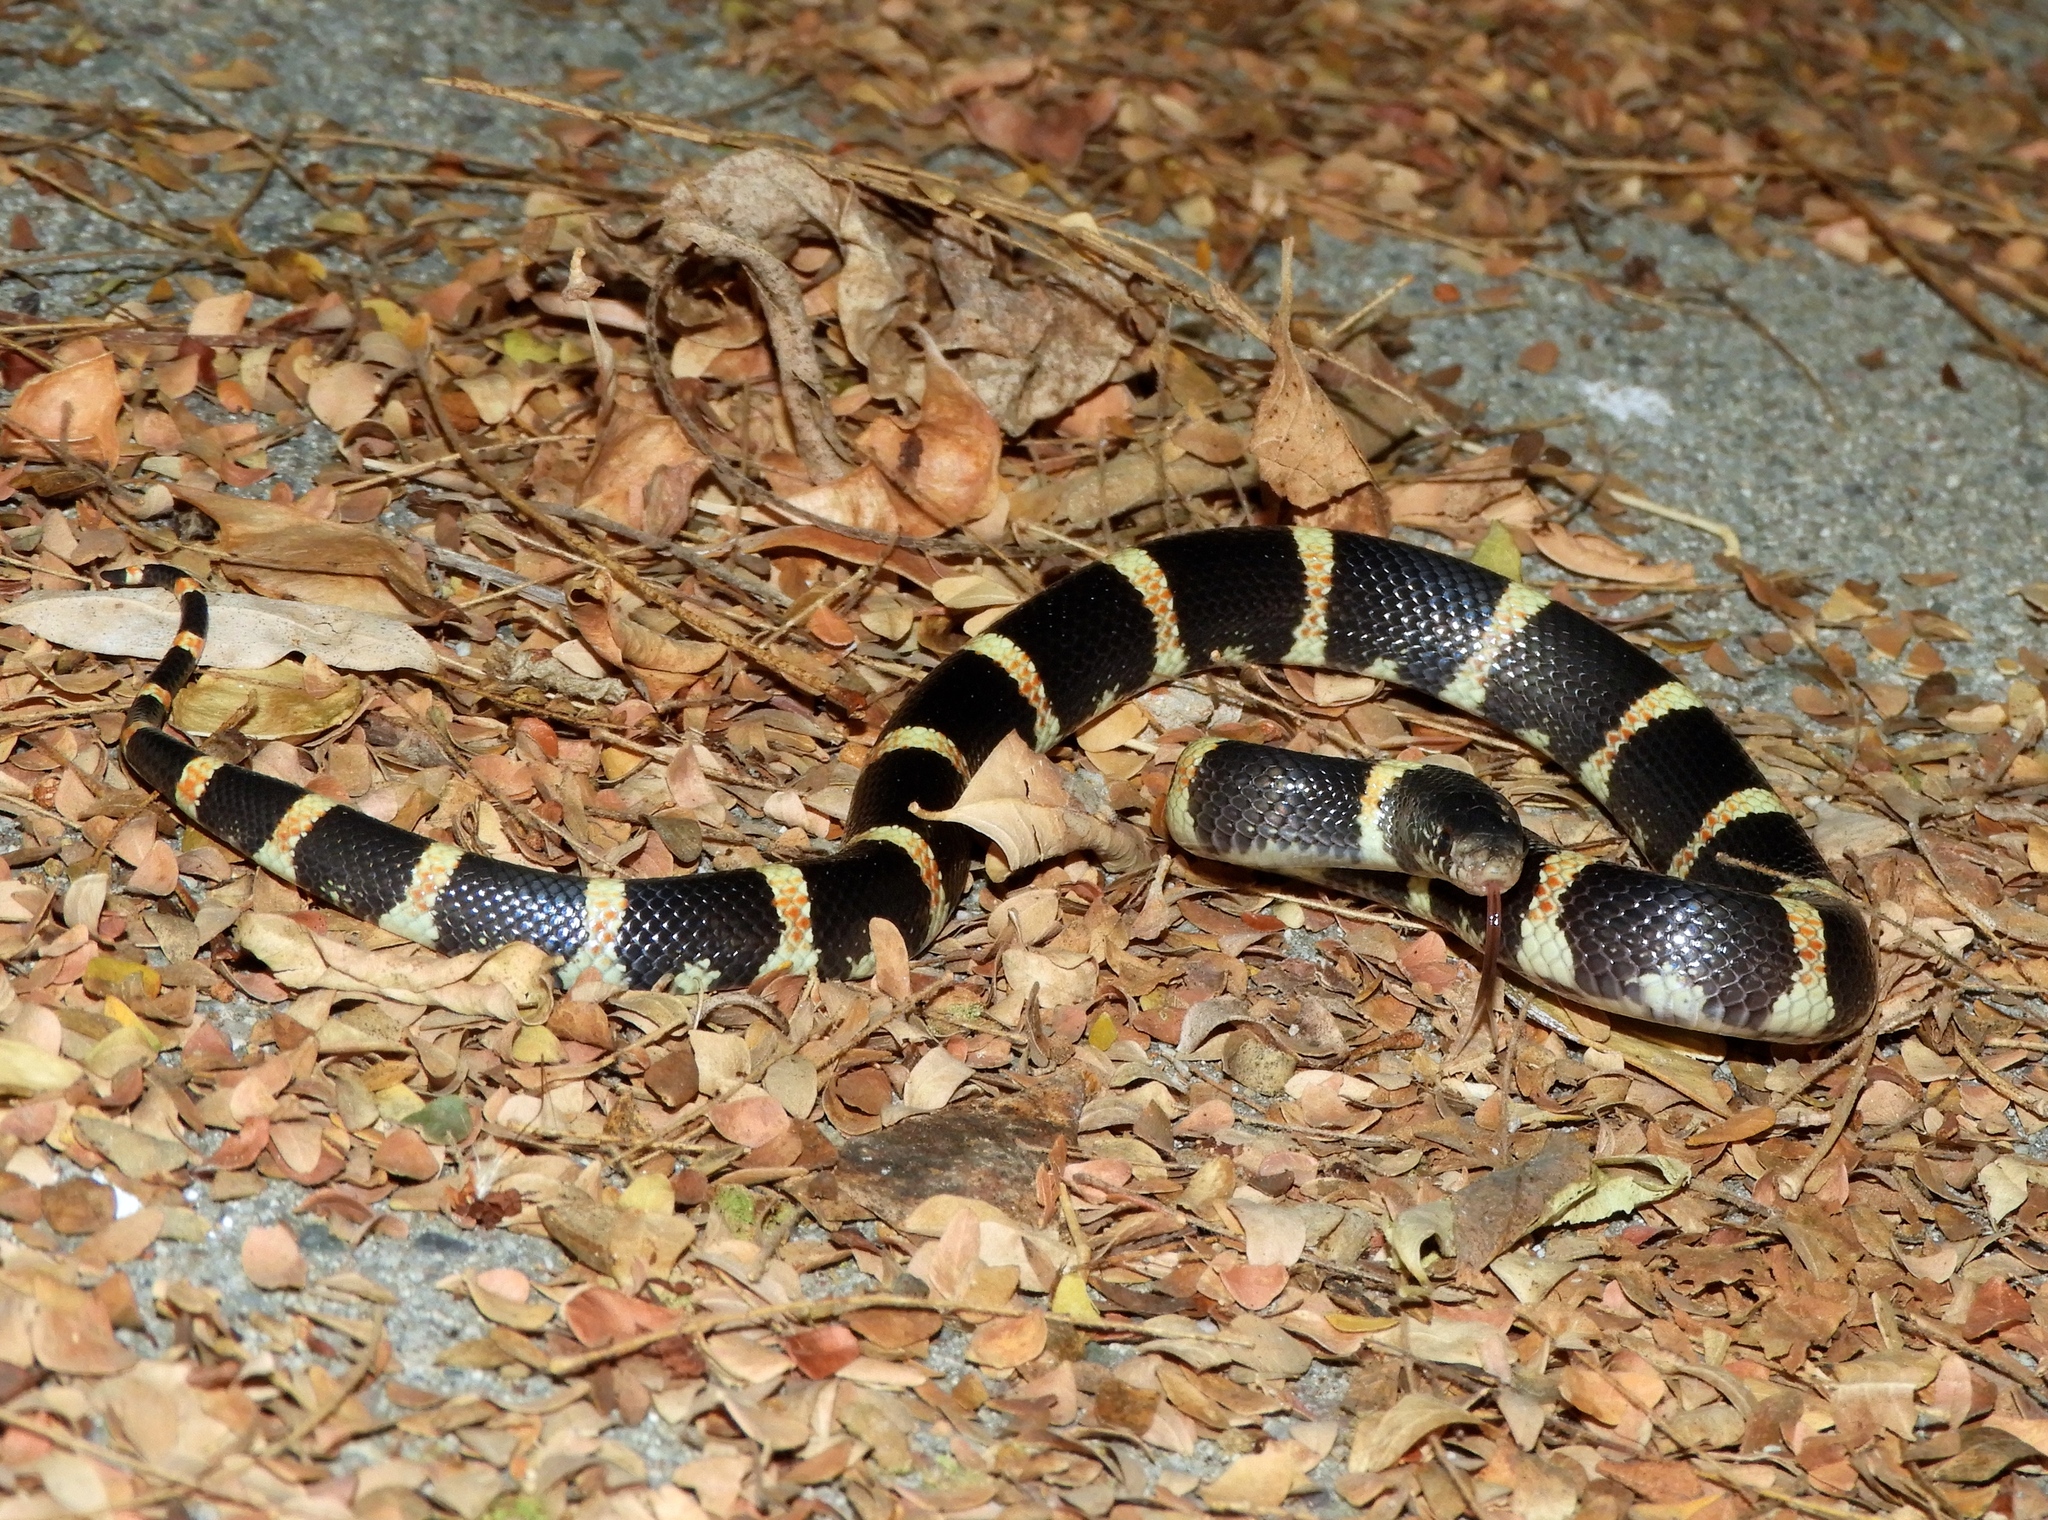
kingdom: Animalia
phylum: Chordata
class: Squamata
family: Colubridae
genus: Rhinocheilus
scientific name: Rhinocheilus antonii
